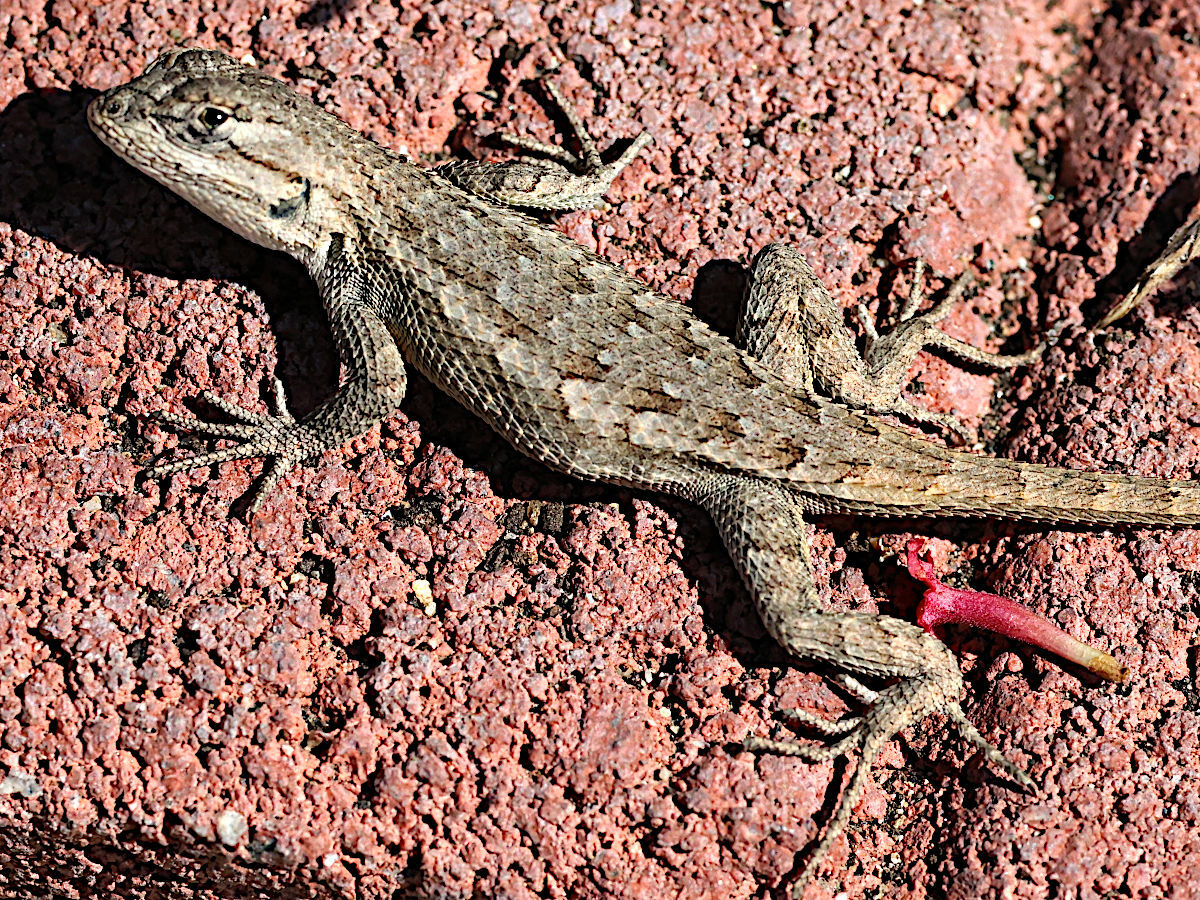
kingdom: Animalia
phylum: Chordata
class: Squamata
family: Phrynosomatidae
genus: Sceloporus
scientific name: Sceloporus occidentalis
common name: Western fence lizard
